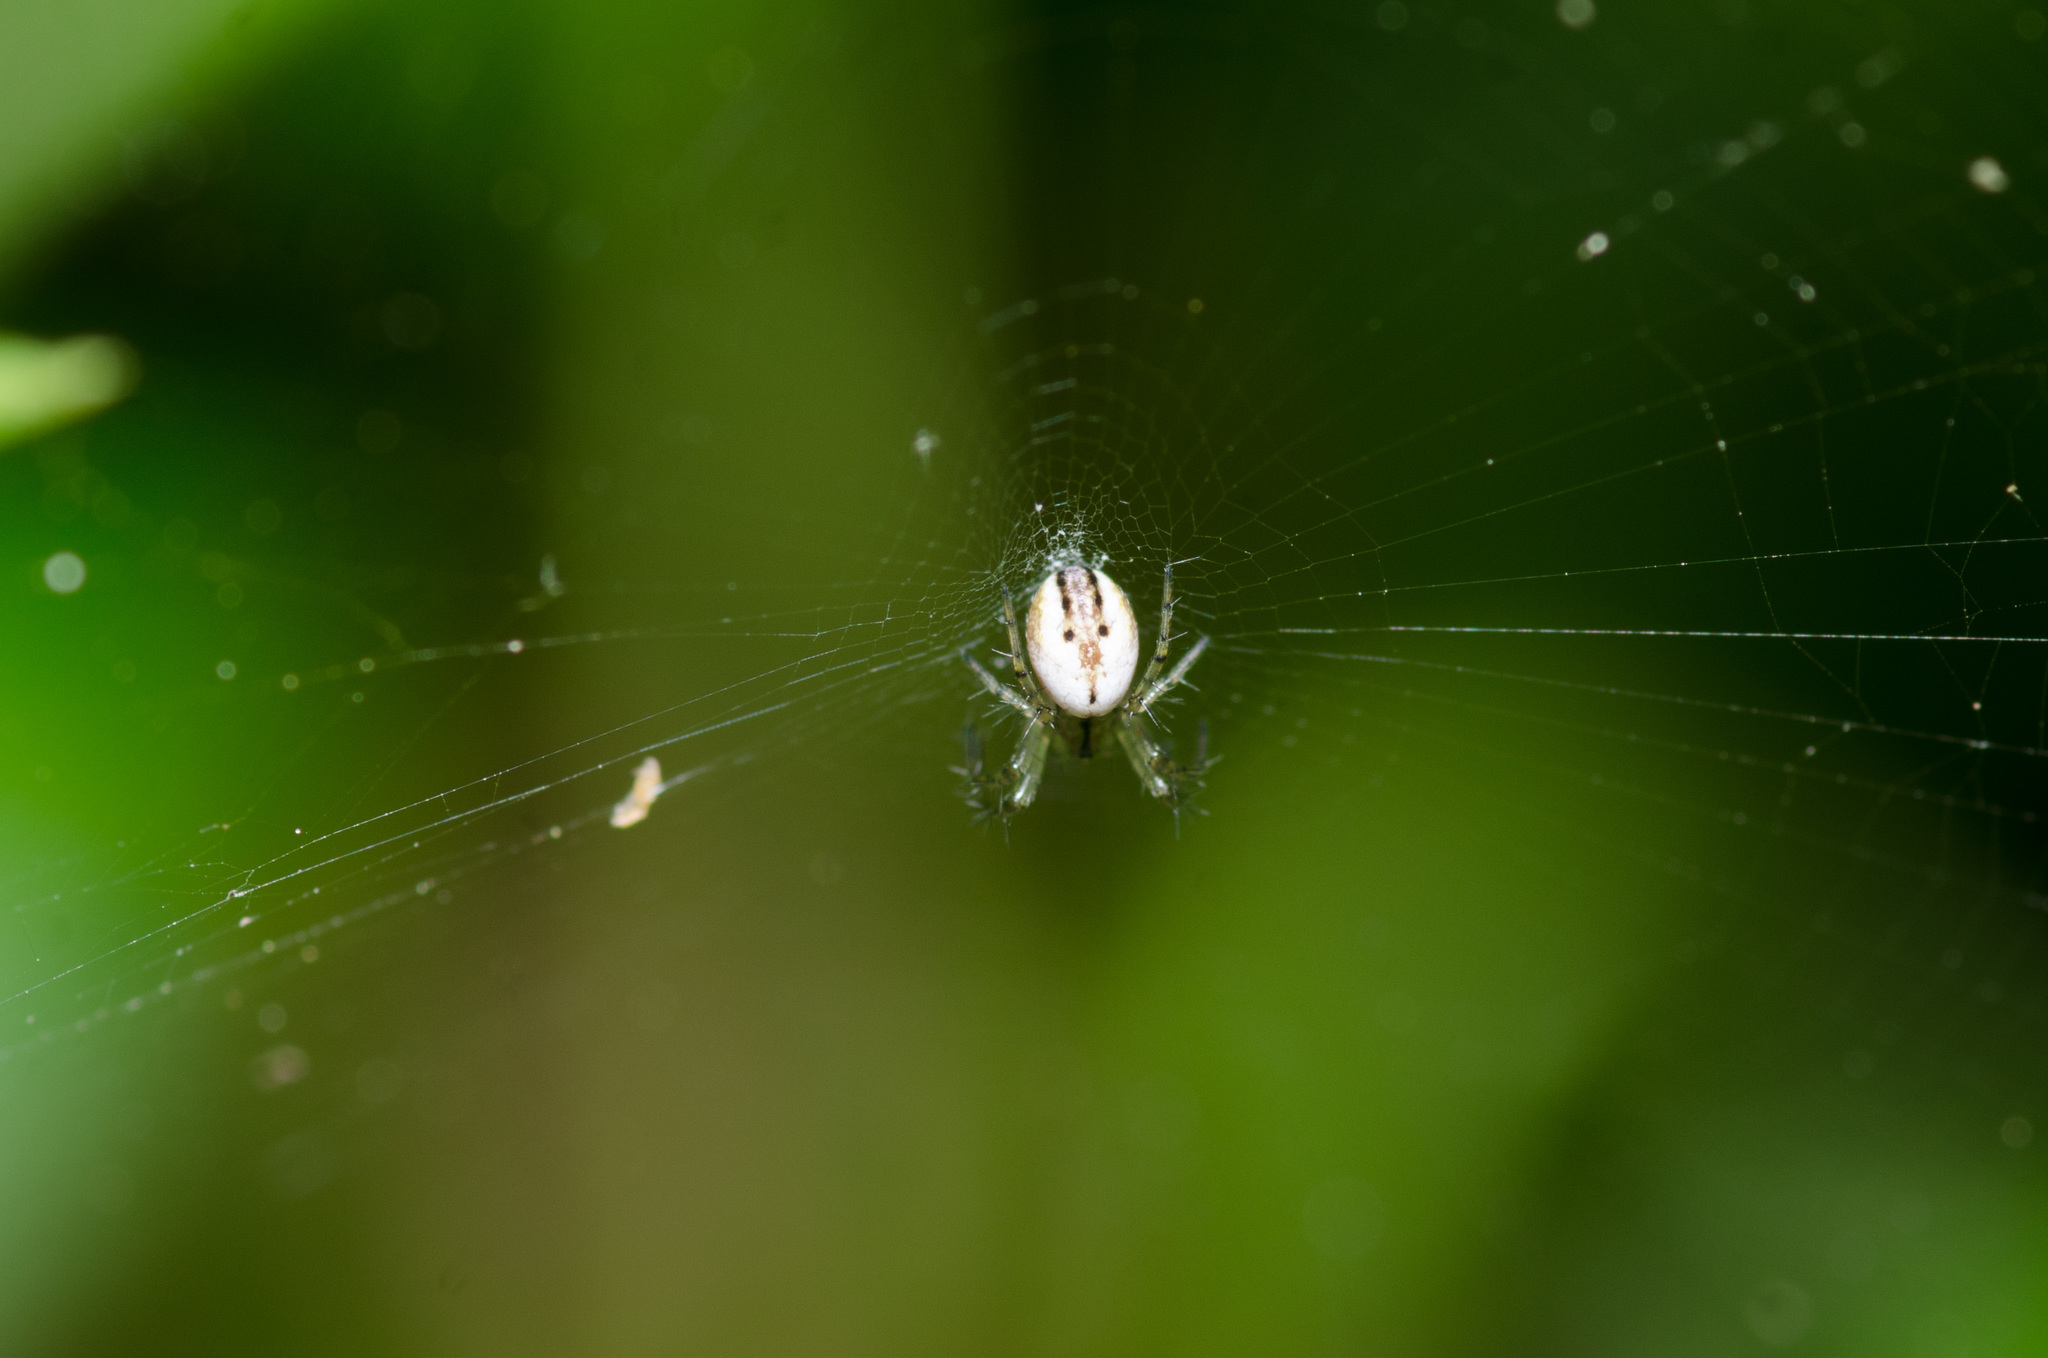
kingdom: Animalia
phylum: Arthropoda
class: Arachnida
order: Araneae
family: Araneidae
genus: Mangora
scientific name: Mangora gibberosa
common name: Lined orbweaver
